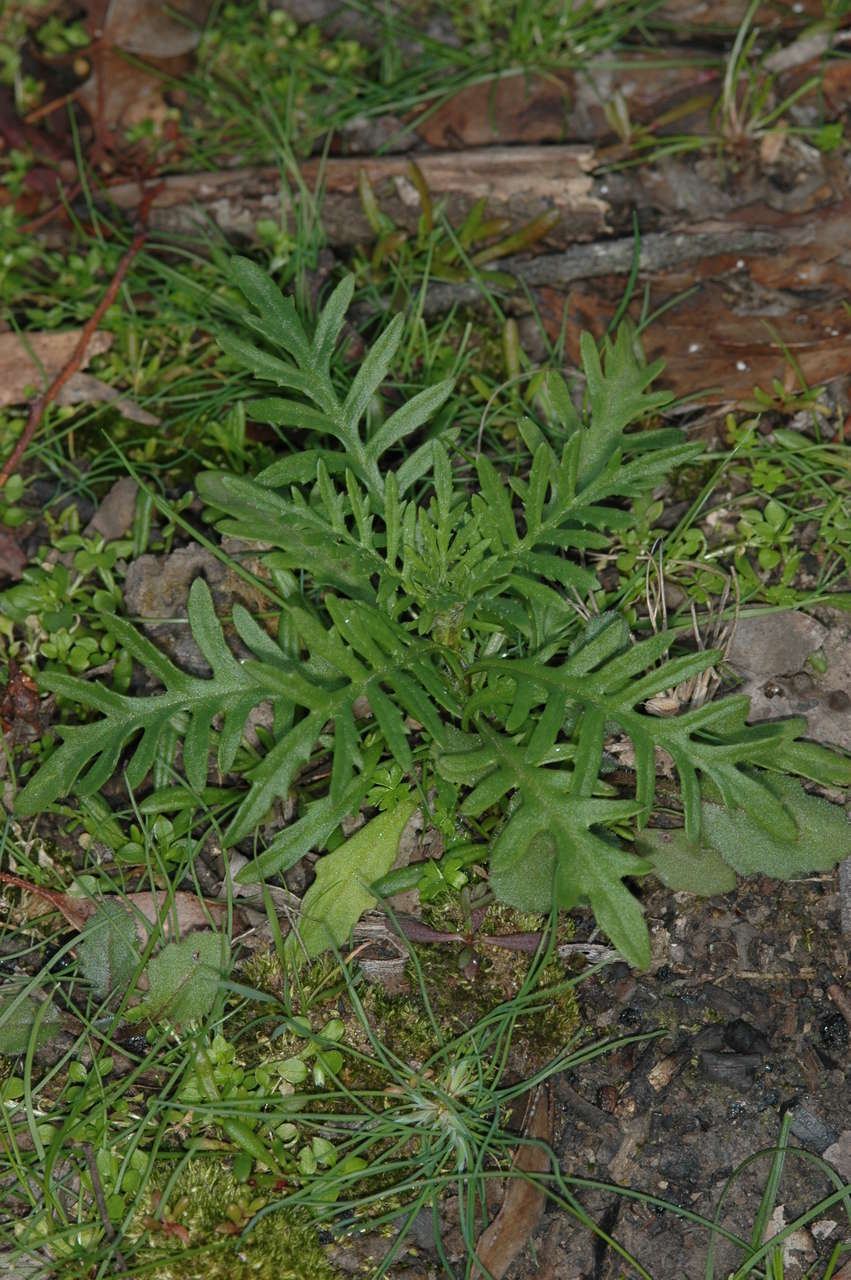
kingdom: Plantae
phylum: Tracheophyta
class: Magnoliopsida
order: Asterales
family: Asteraceae
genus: Senecio
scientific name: Senecio pinnatifolius
